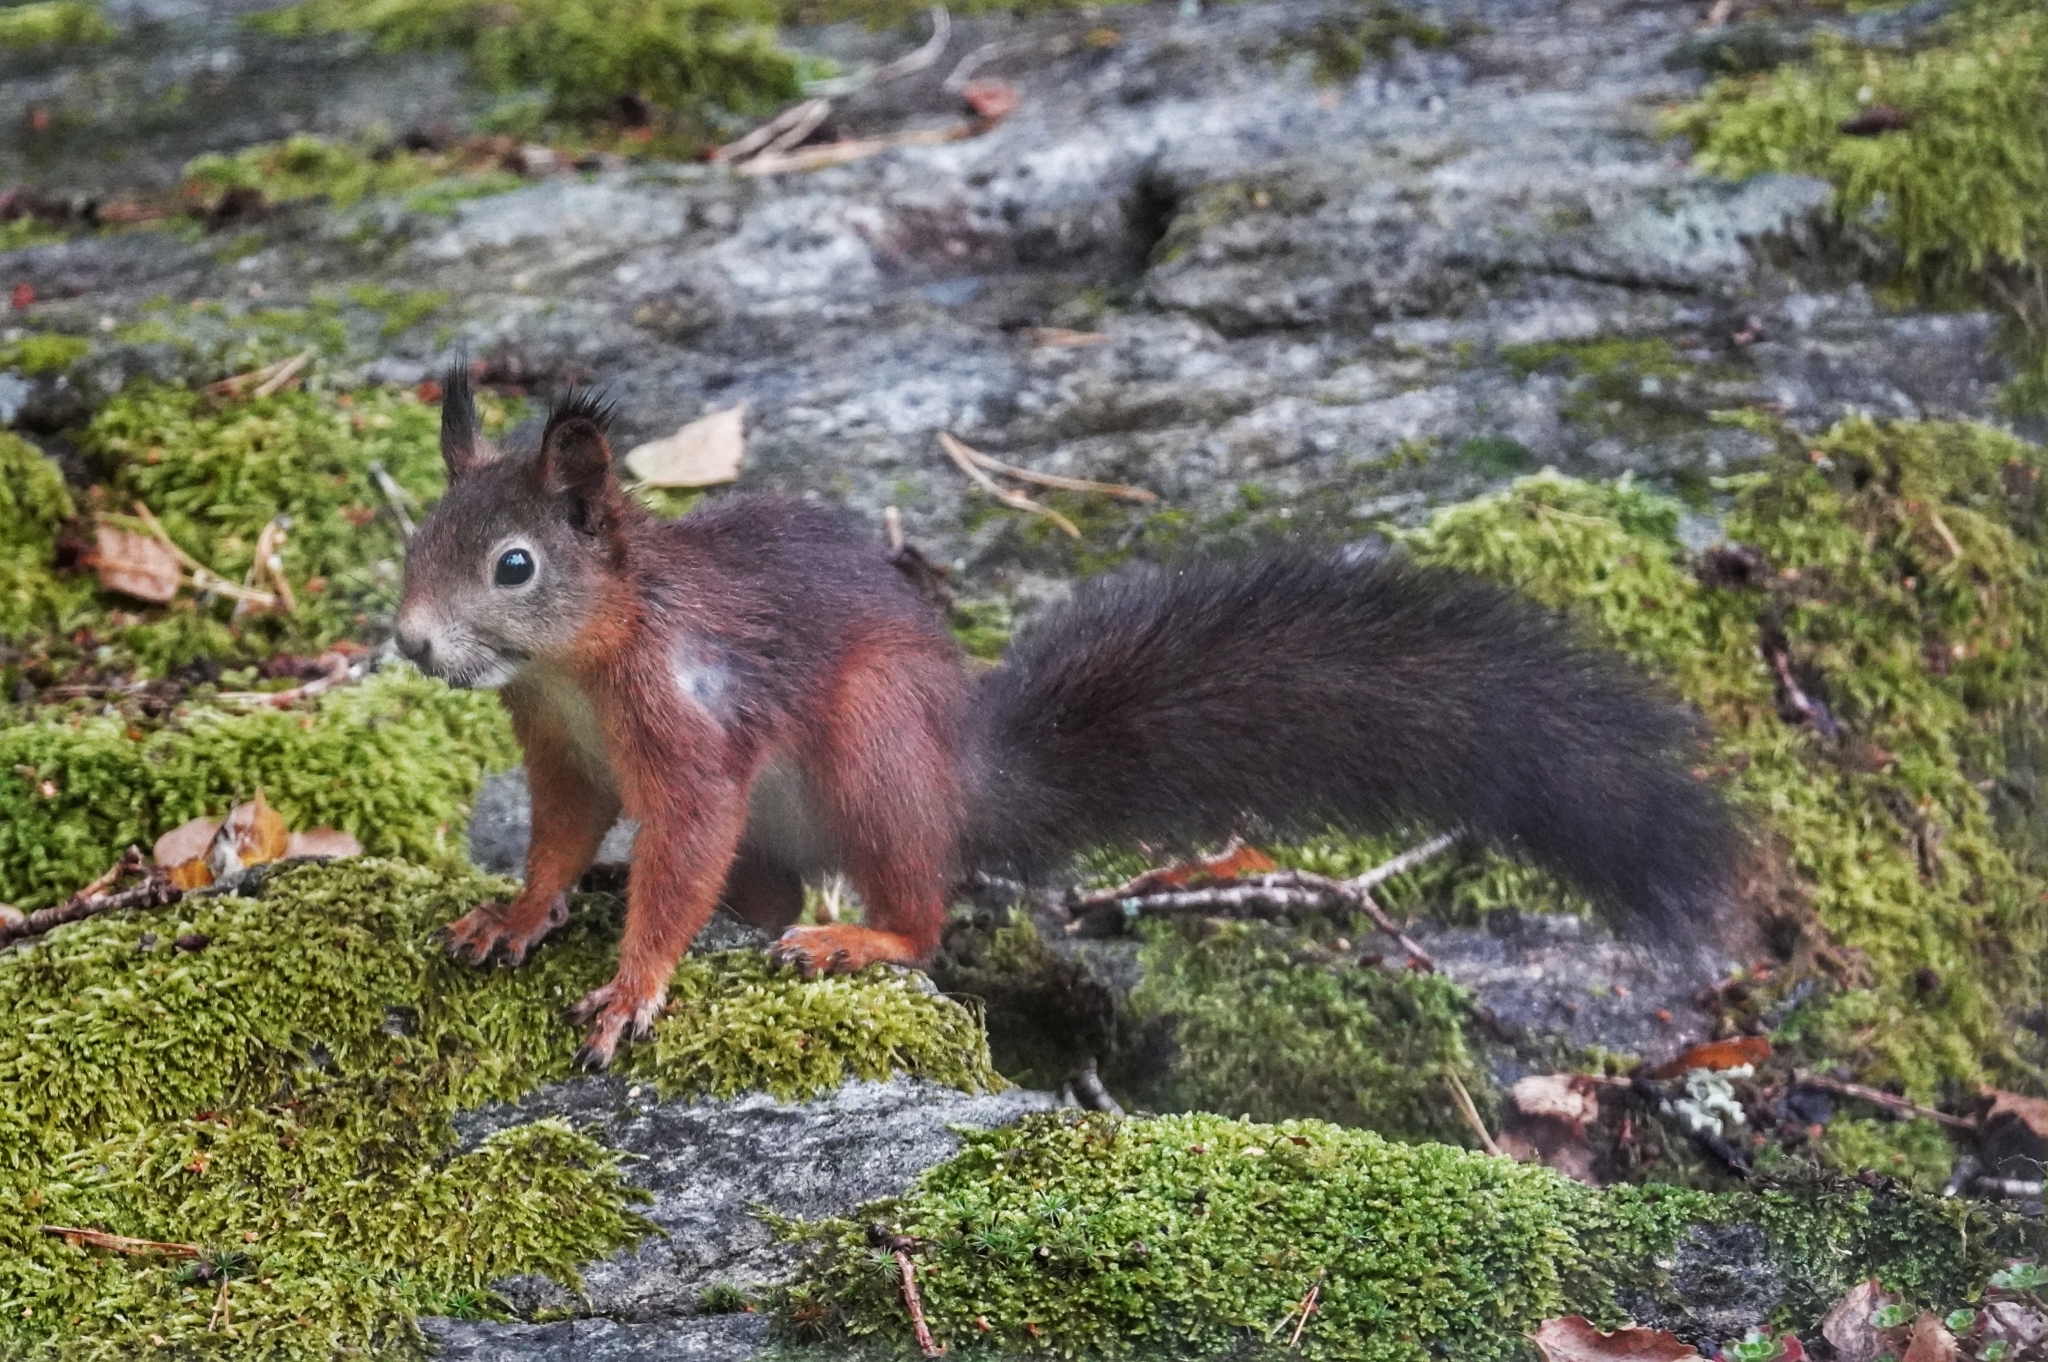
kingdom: Animalia
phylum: Chordata
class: Mammalia
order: Rodentia
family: Sciuridae
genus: Sciurus
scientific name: Sciurus vulgaris
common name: Eurasian red squirrel
